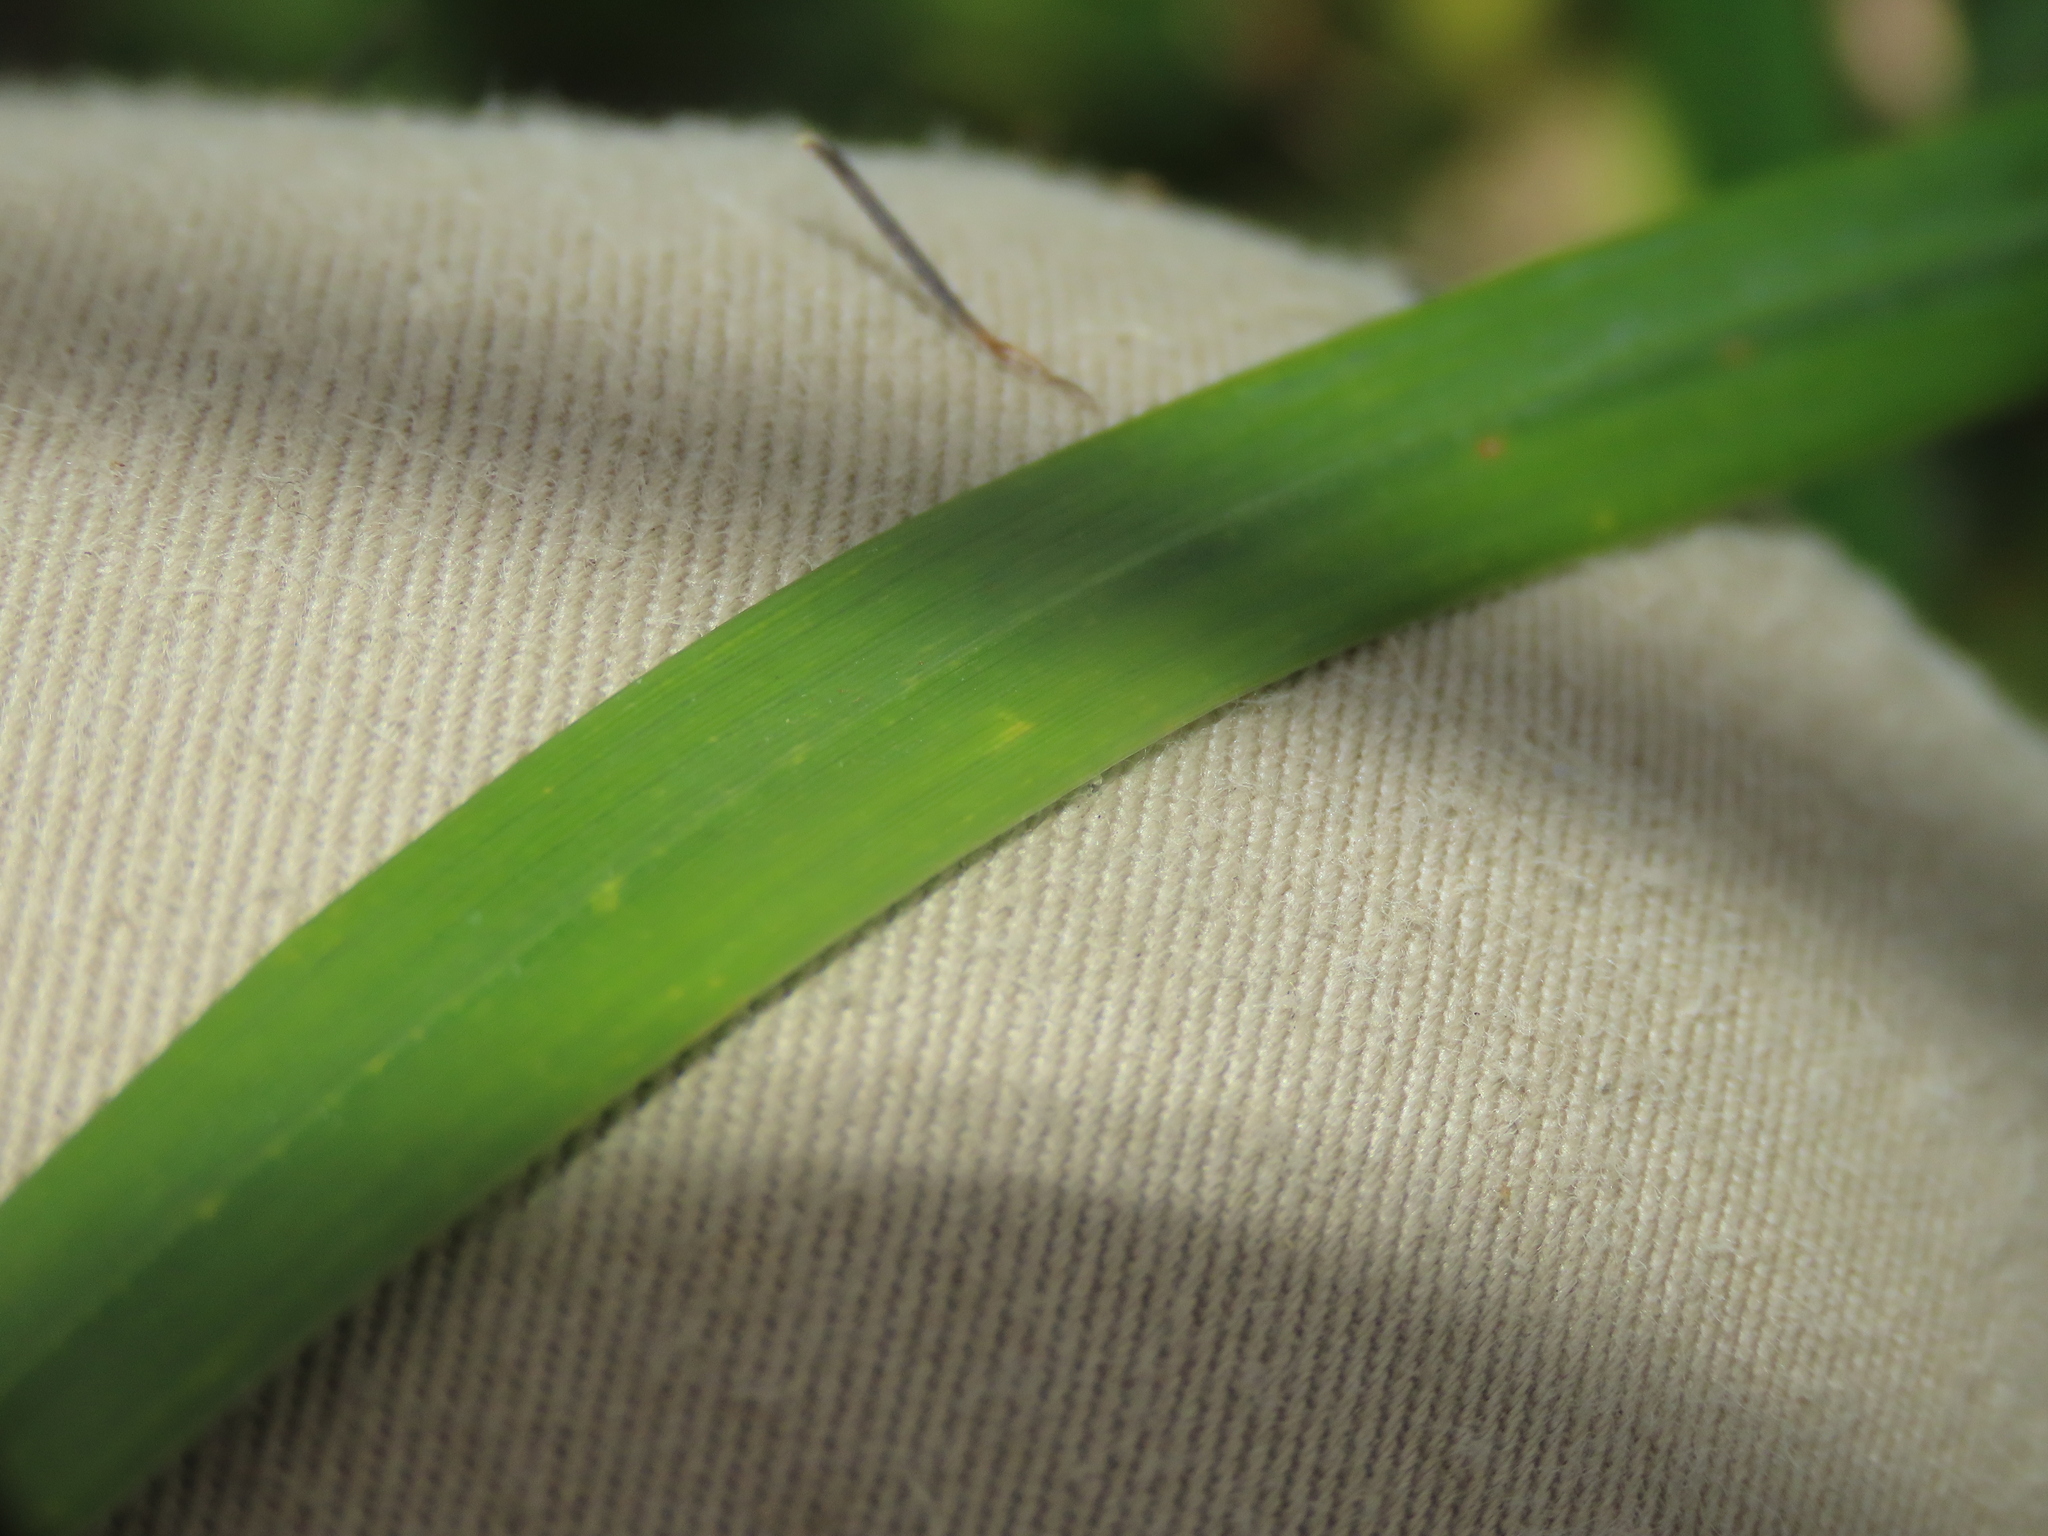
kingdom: Plantae
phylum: Tracheophyta
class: Liliopsida
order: Poales
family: Poaceae
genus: Calamagrostis
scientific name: Calamagrostis epigejos
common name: Wood small-reed
